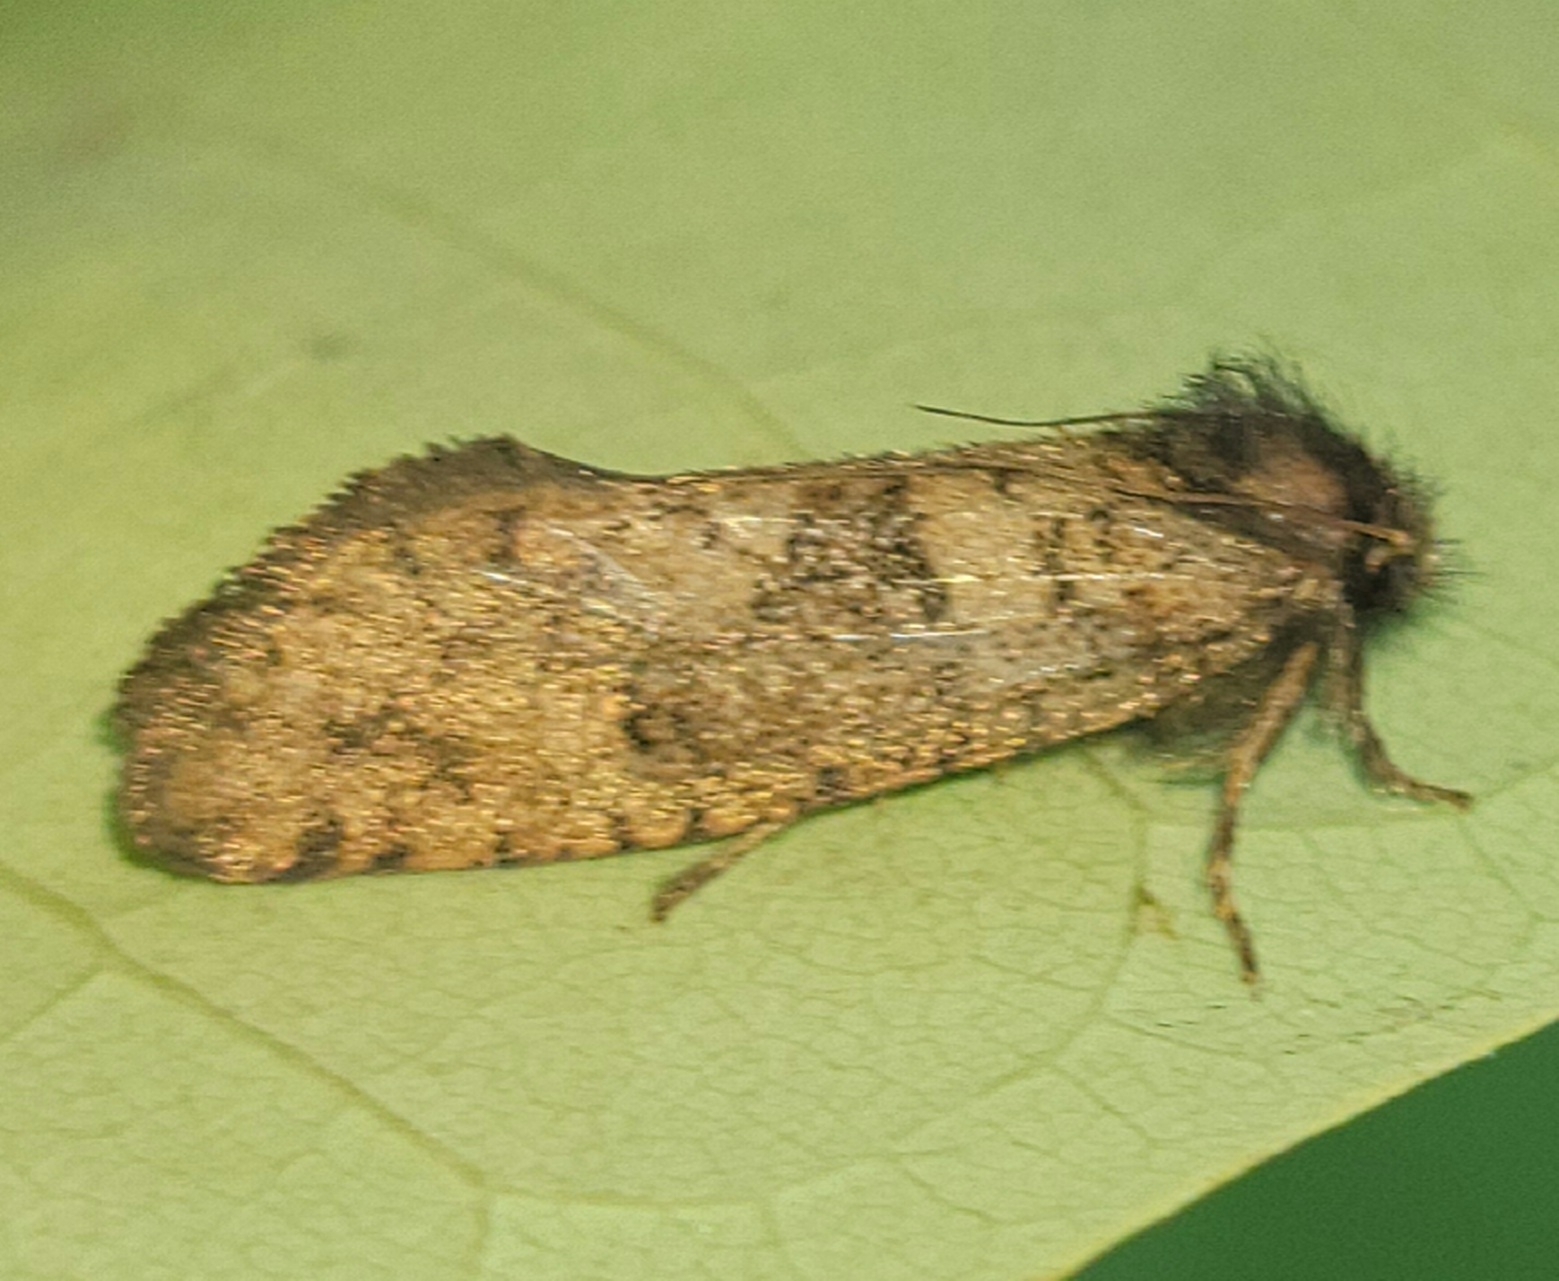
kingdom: Animalia
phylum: Arthropoda
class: Insecta
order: Lepidoptera
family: Tineidae
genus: Acrolophus
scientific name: Acrolophus mora
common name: Dark acrolophus
